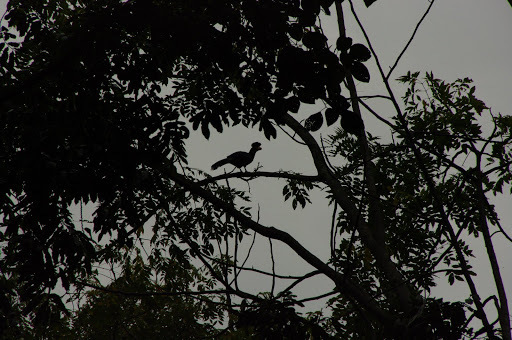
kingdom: Animalia
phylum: Chordata
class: Aves
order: Musophagiformes
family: Musophagidae
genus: Corythaeola
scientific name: Corythaeola cristata
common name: Great blue turaco
